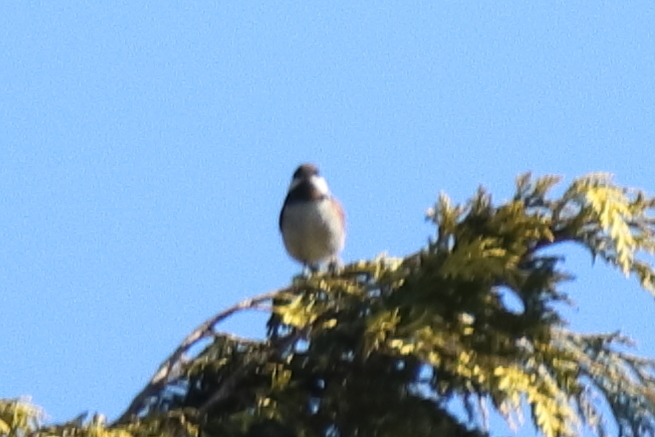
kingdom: Animalia
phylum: Chordata
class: Aves
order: Passeriformes
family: Paridae
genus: Poecile
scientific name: Poecile rufescens
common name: Chestnut-backed chickadee
